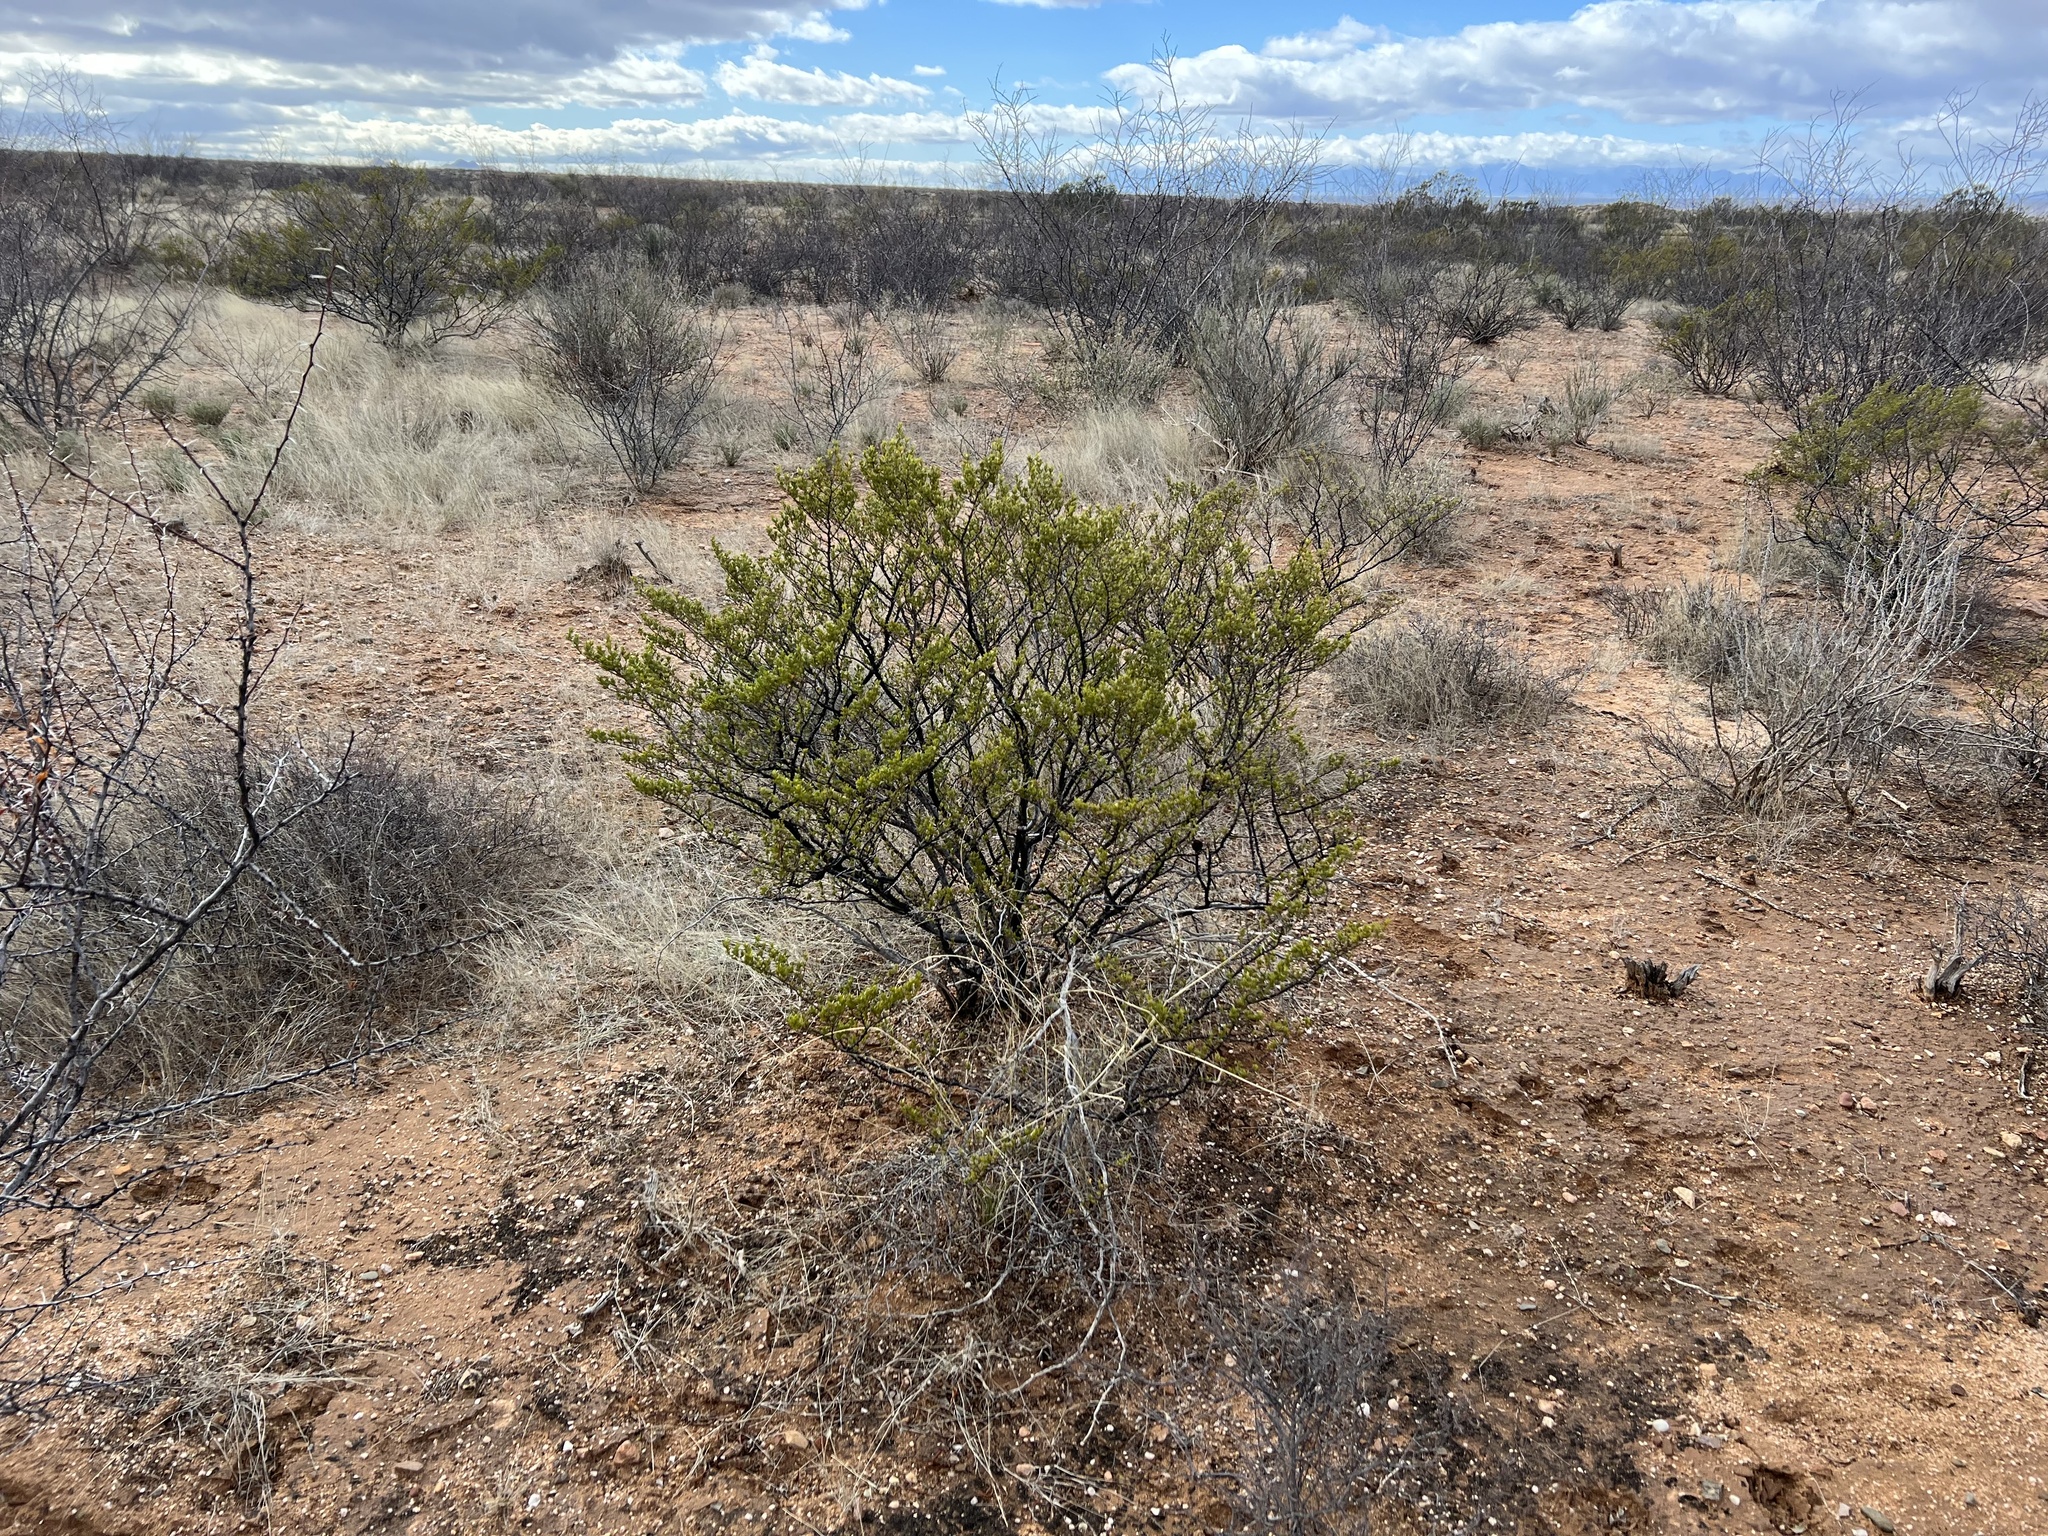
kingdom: Plantae
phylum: Tracheophyta
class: Magnoliopsida
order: Zygophyllales
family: Zygophyllaceae
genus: Larrea
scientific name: Larrea tridentata
